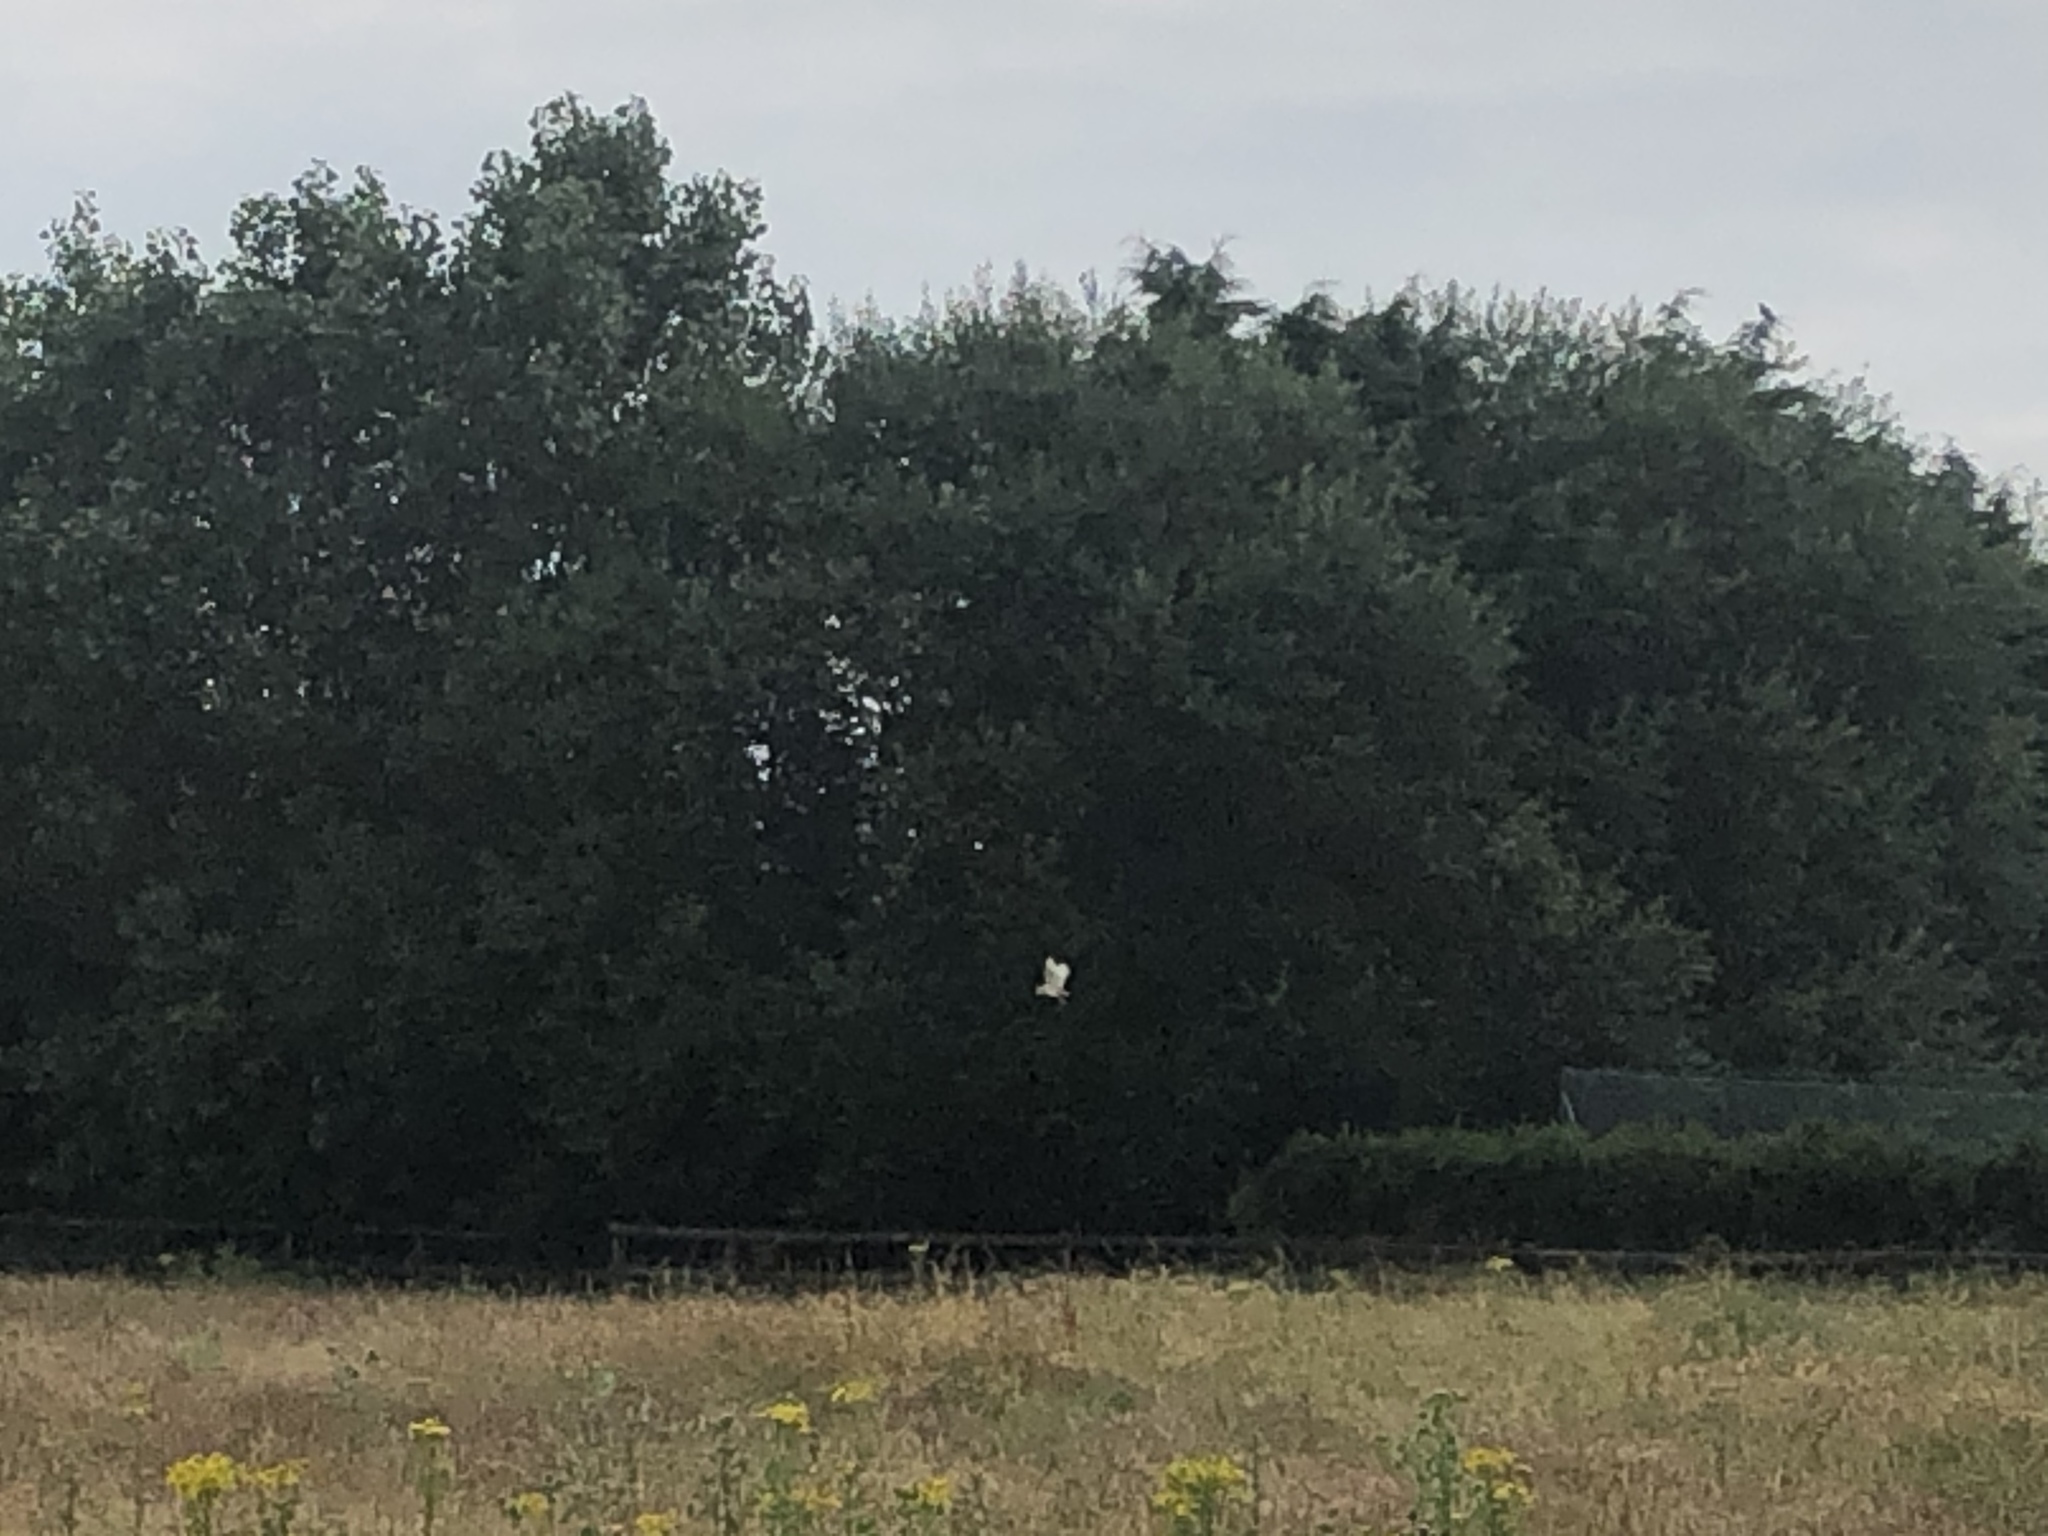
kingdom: Animalia
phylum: Chordata
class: Aves
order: Strigiformes
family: Tytonidae
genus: Tyto
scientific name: Tyto alba
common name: Barn owl
